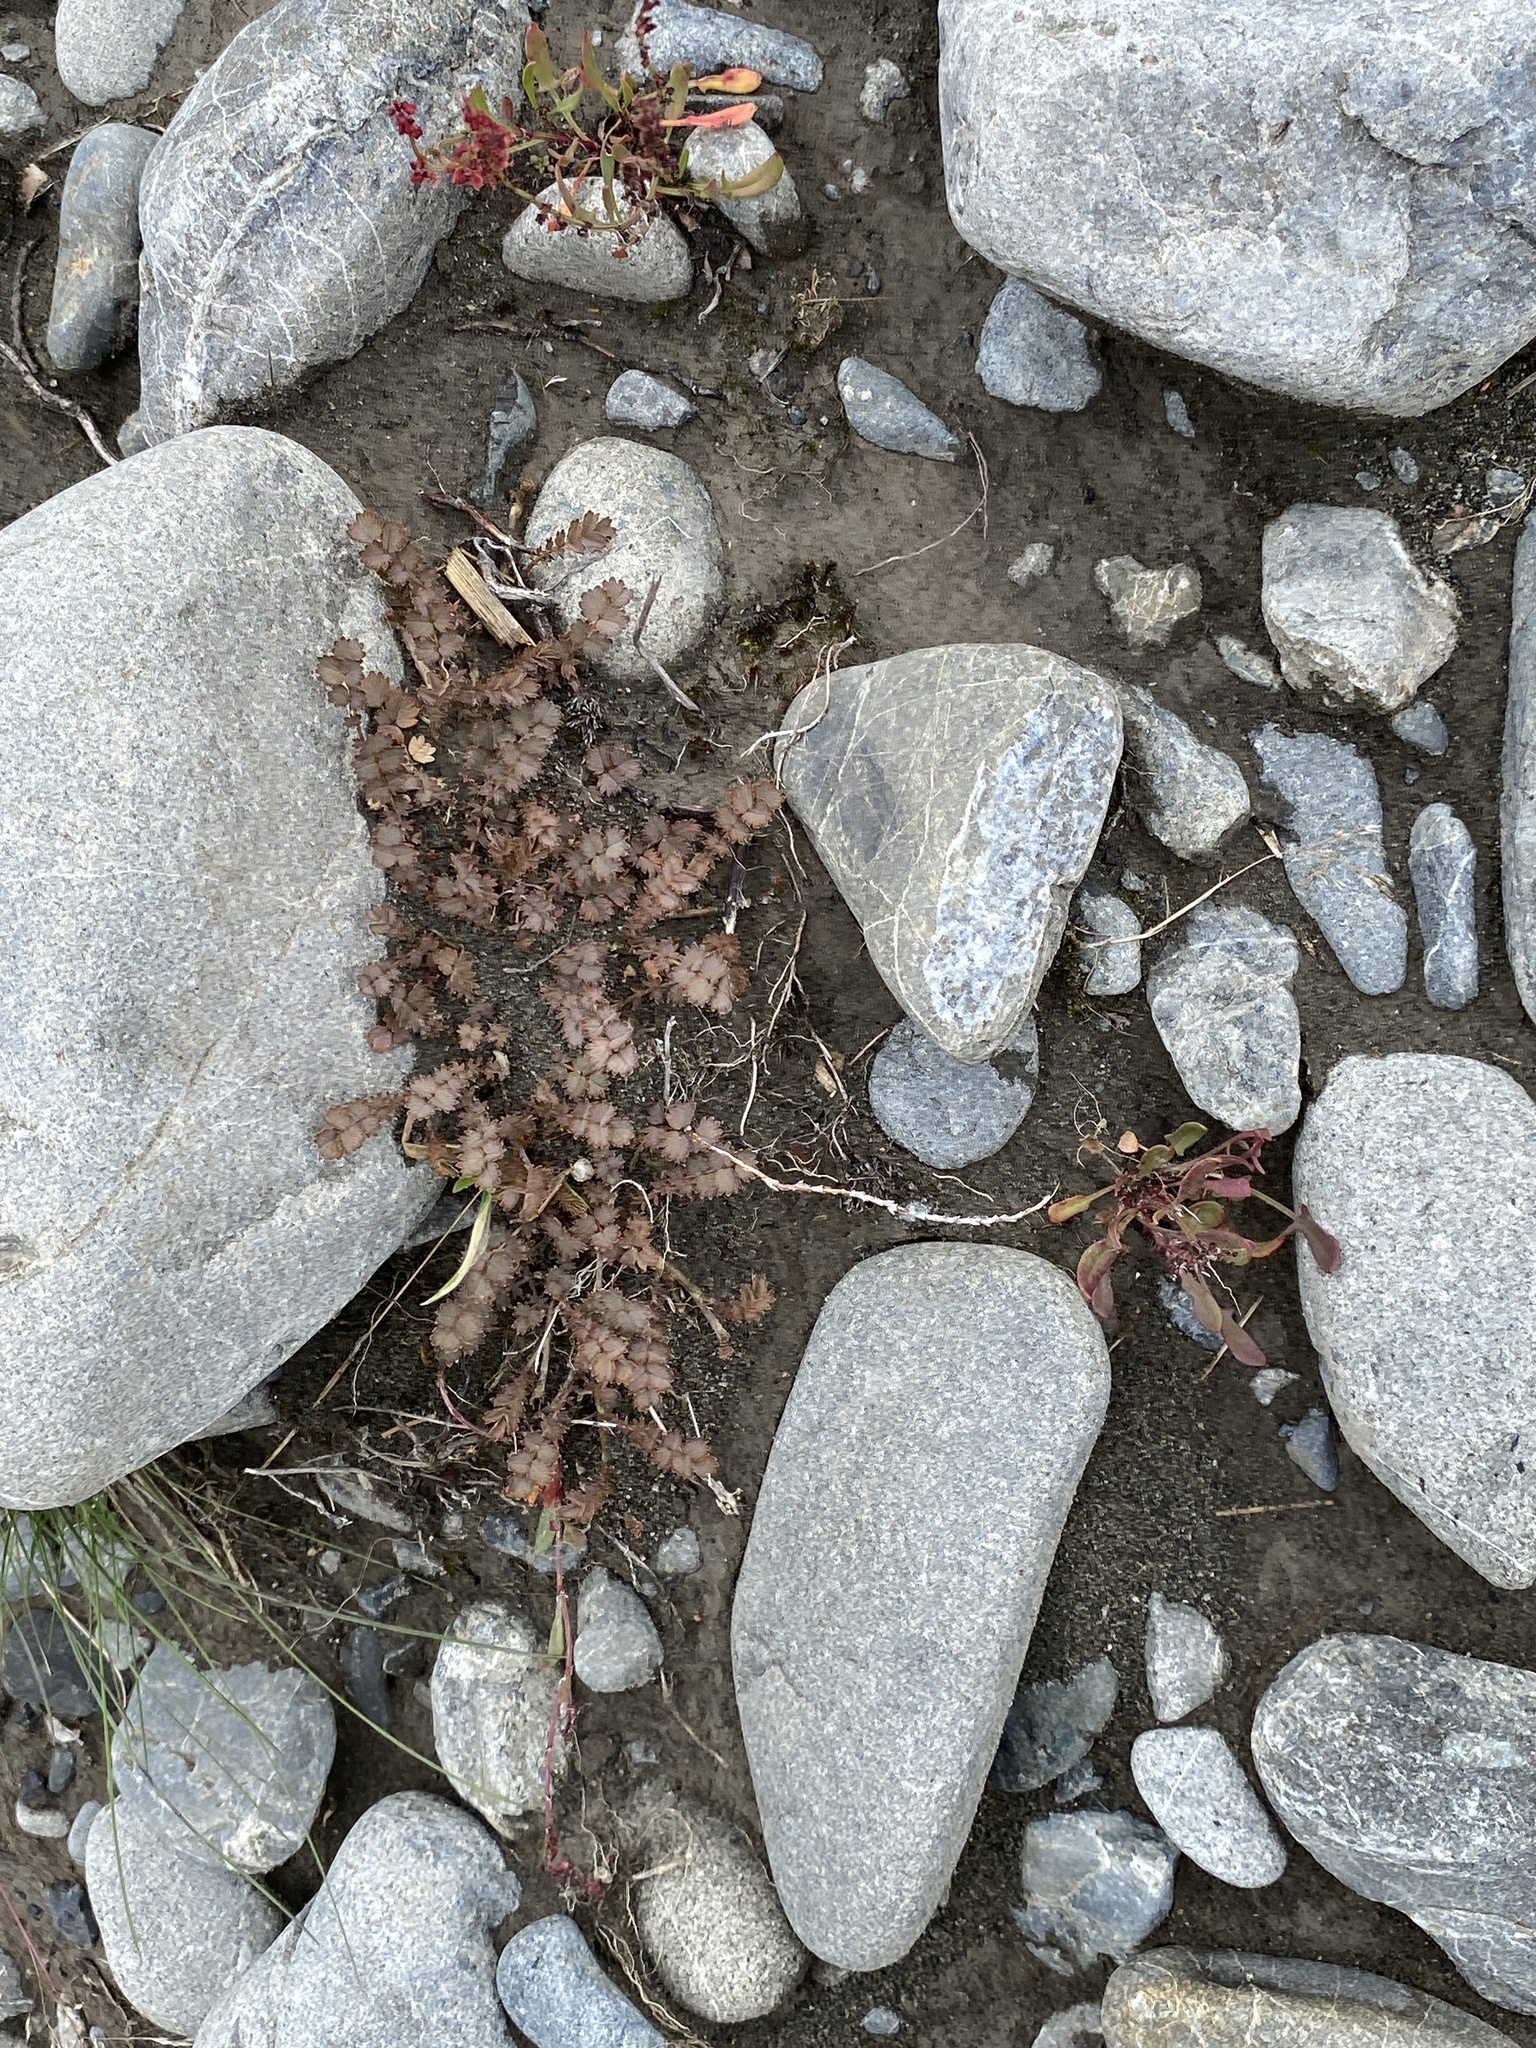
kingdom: Plantae
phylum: Tracheophyta
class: Magnoliopsida
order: Rosales
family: Rosaceae
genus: Acaena
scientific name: Acaena inermis
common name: Spineless acaena
